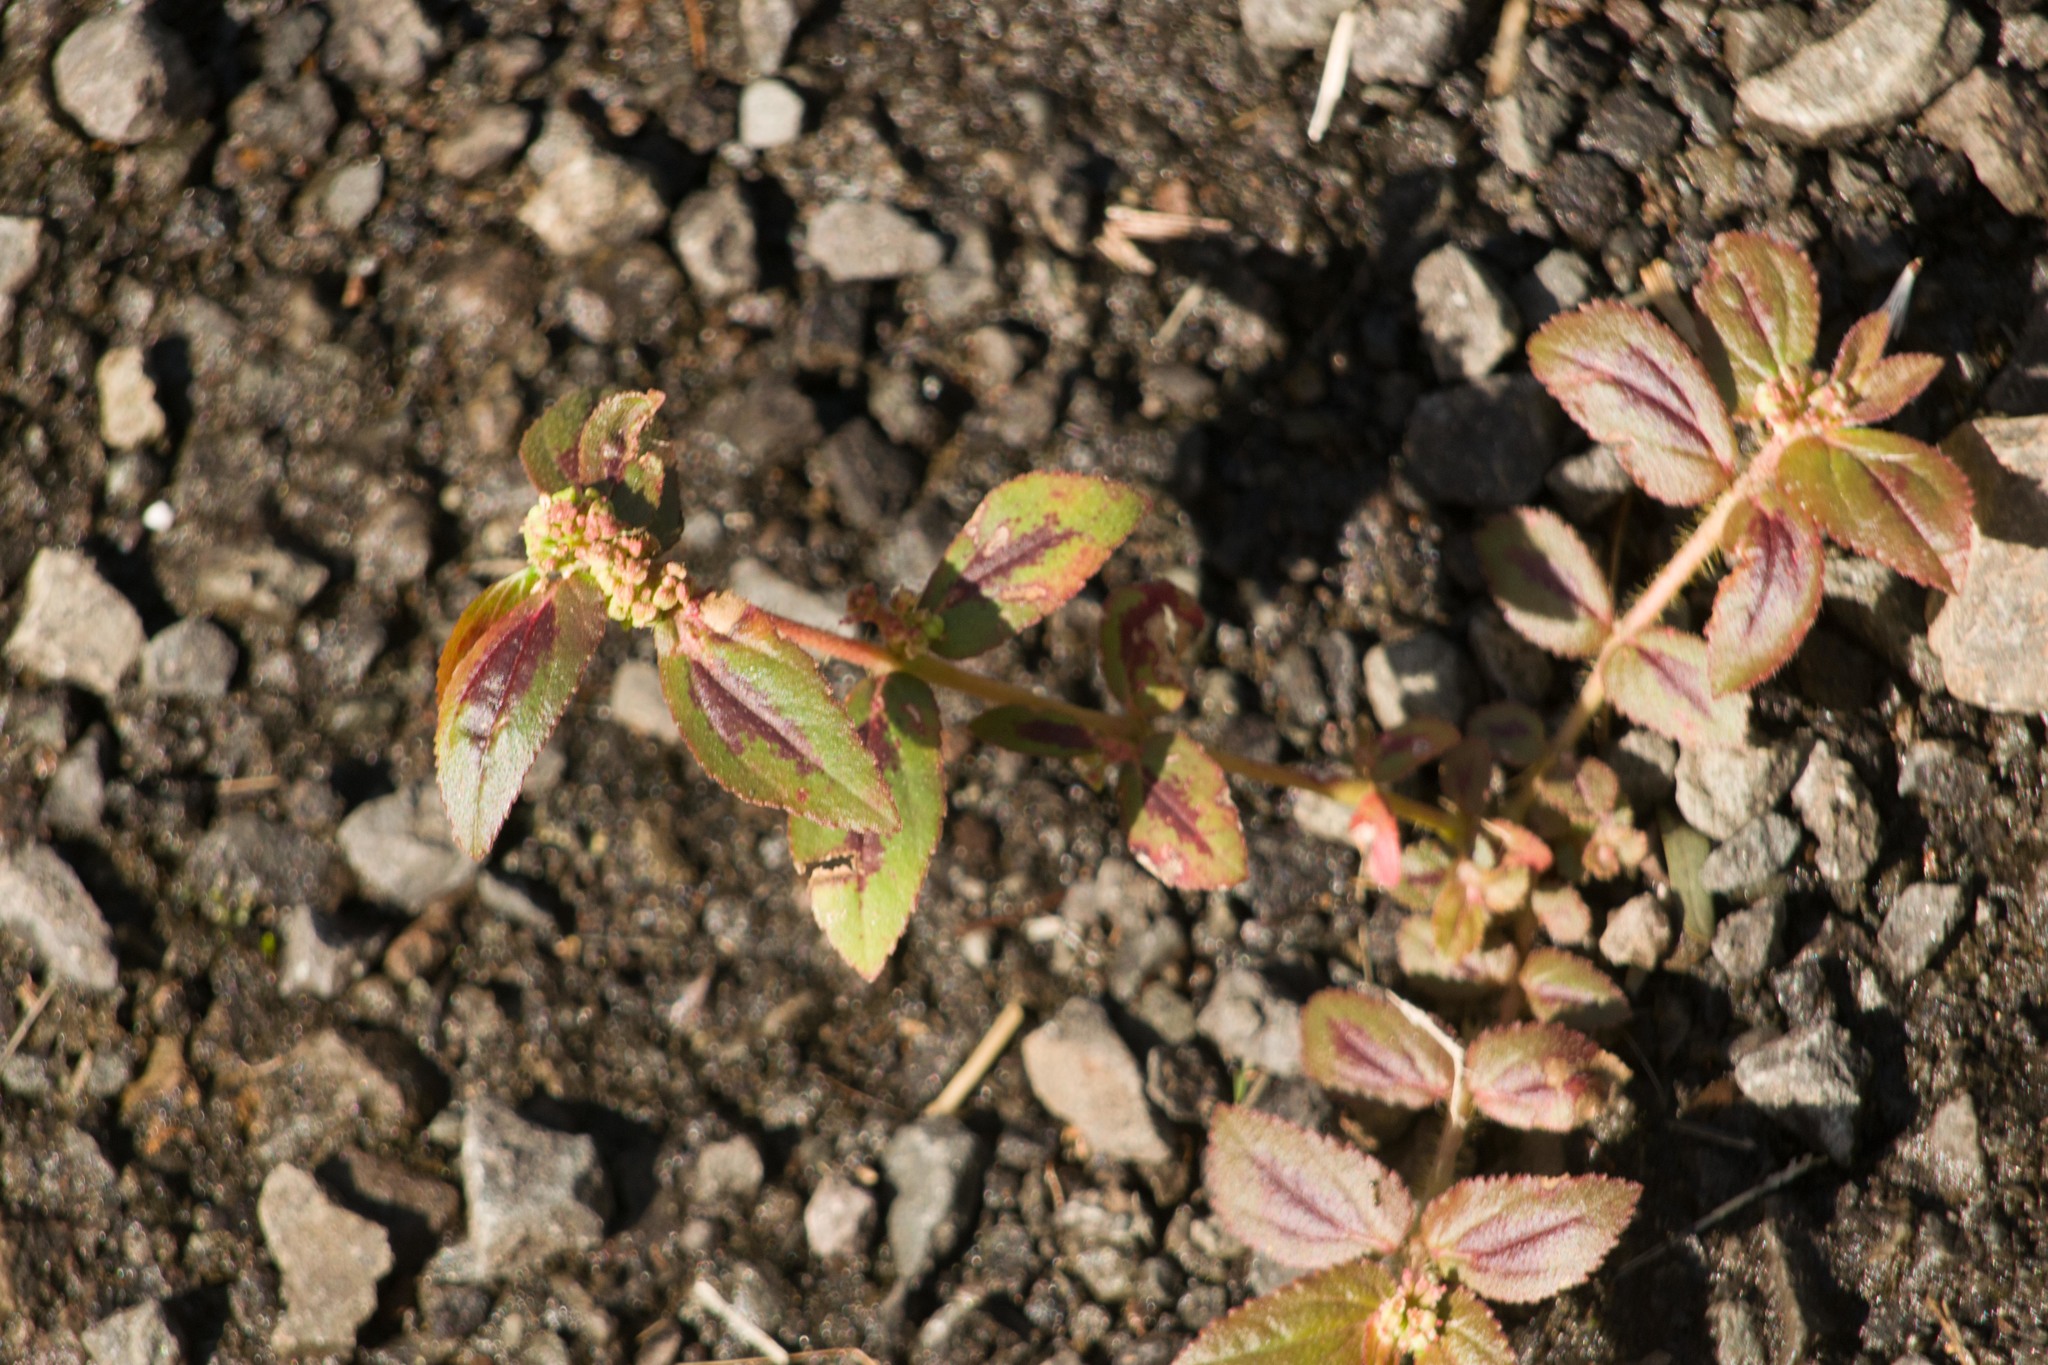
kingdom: Plantae
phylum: Tracheophyta
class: Magnoliopsida
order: Malpighiales
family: Euphorbiaceae
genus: Euphorbia
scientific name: Euphorbia hirta
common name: Pillpod sandmat
